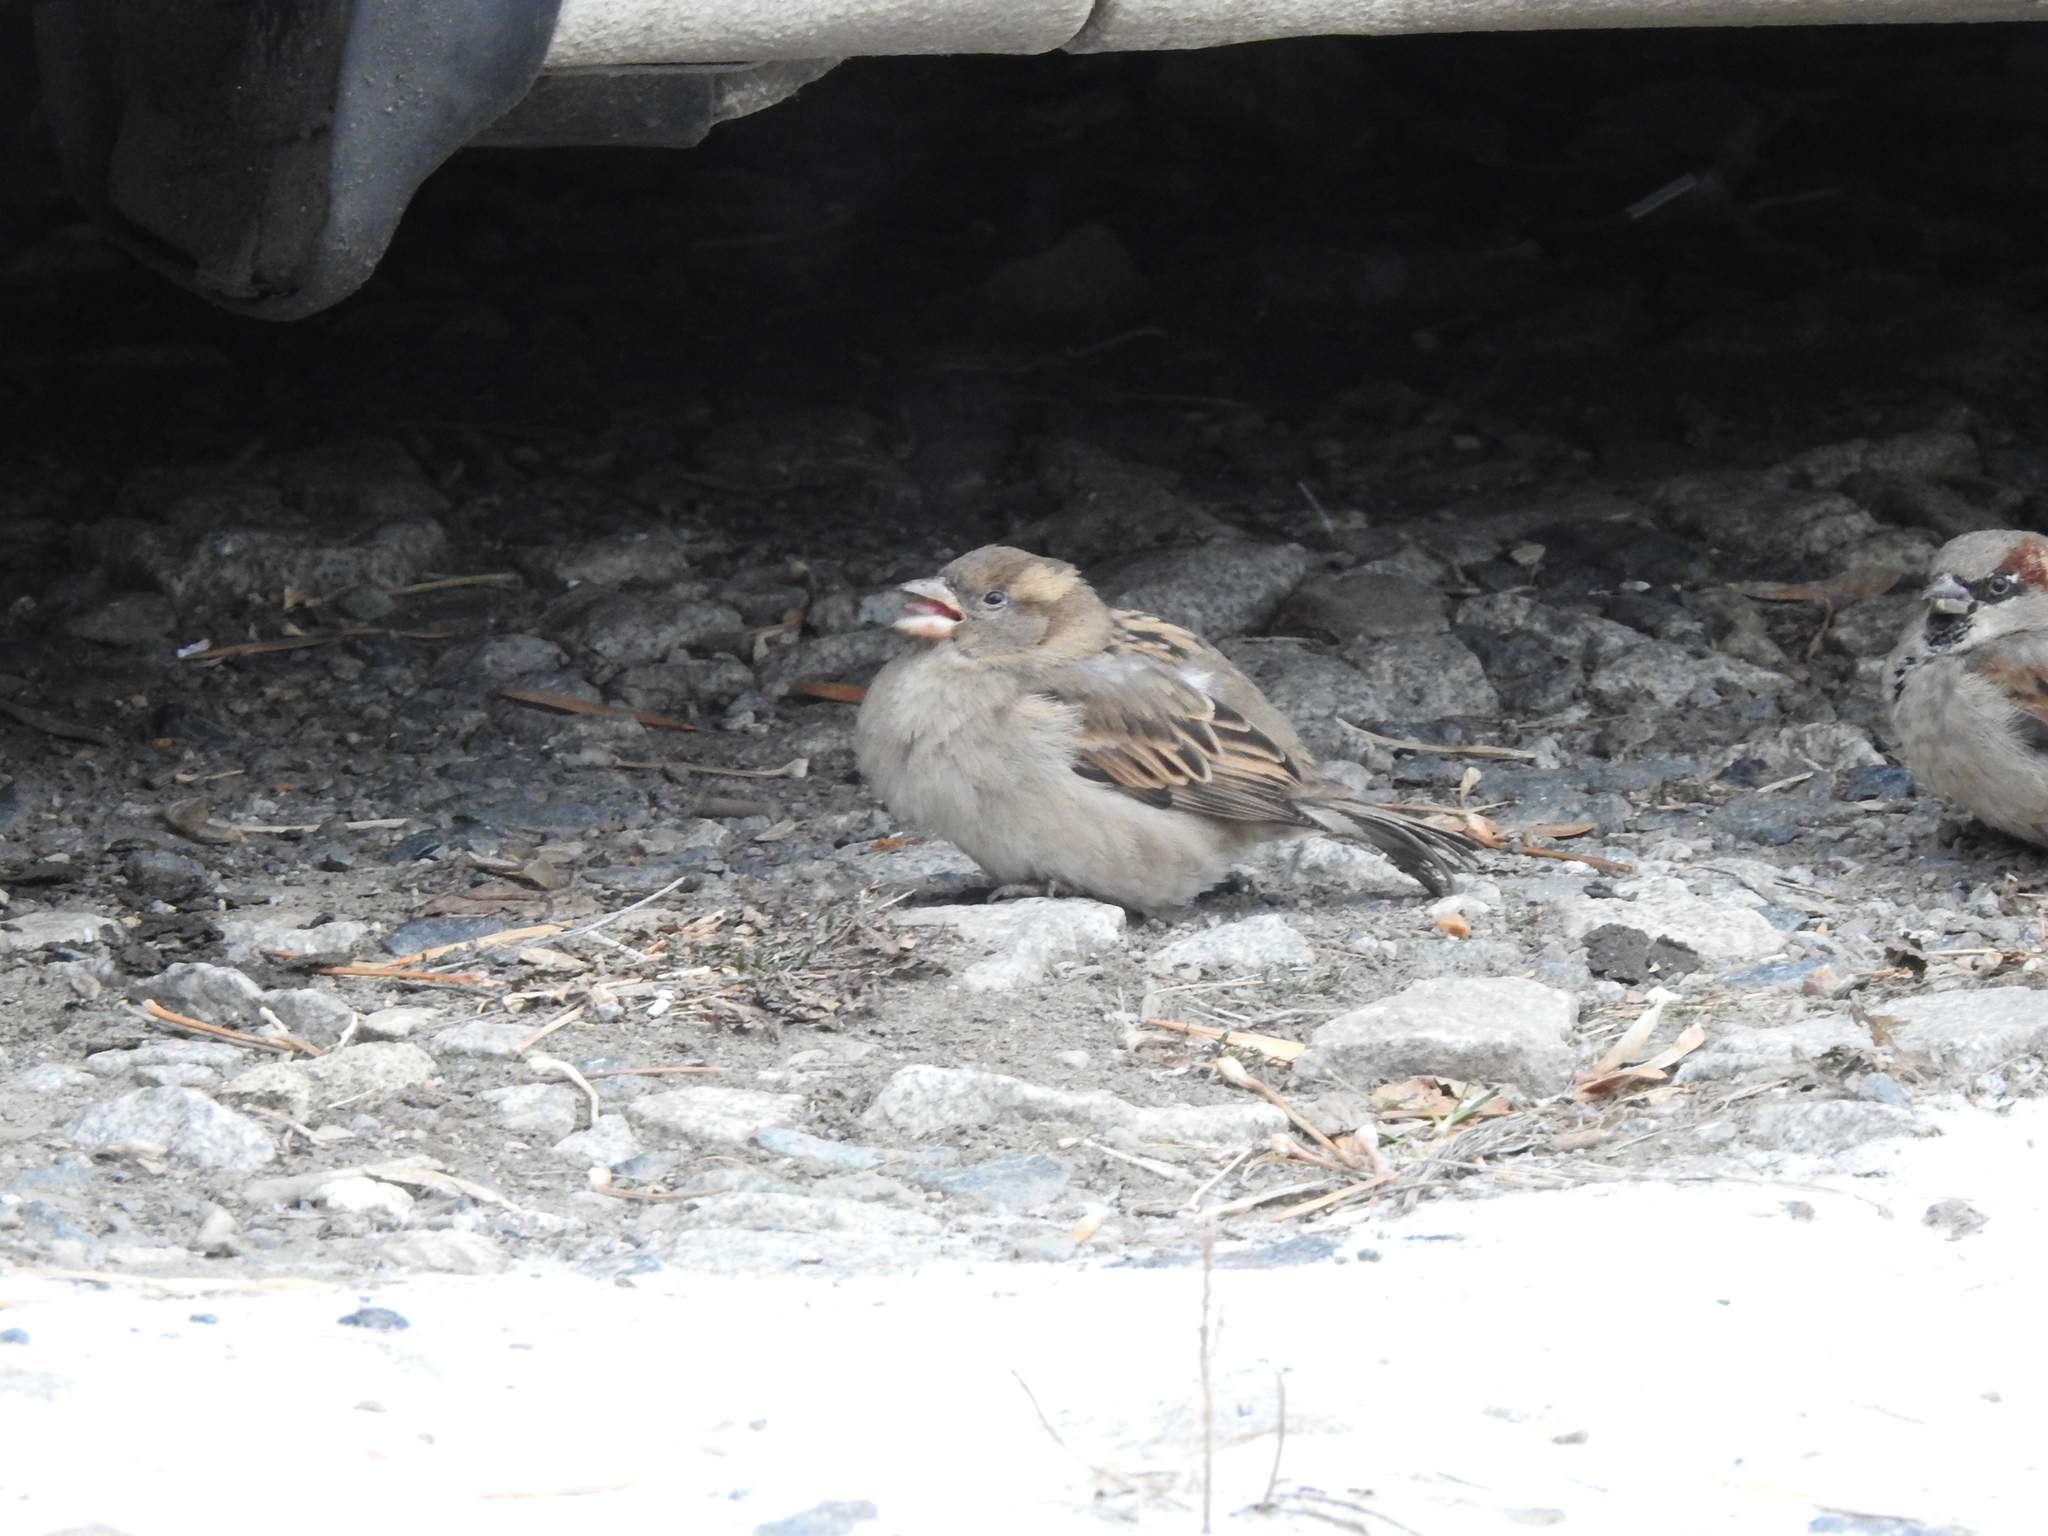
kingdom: Animalia
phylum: Chordata
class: Aves
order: Passeriformes
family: Passeridae
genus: Passer
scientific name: Passer domesticus
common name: House sparrow
